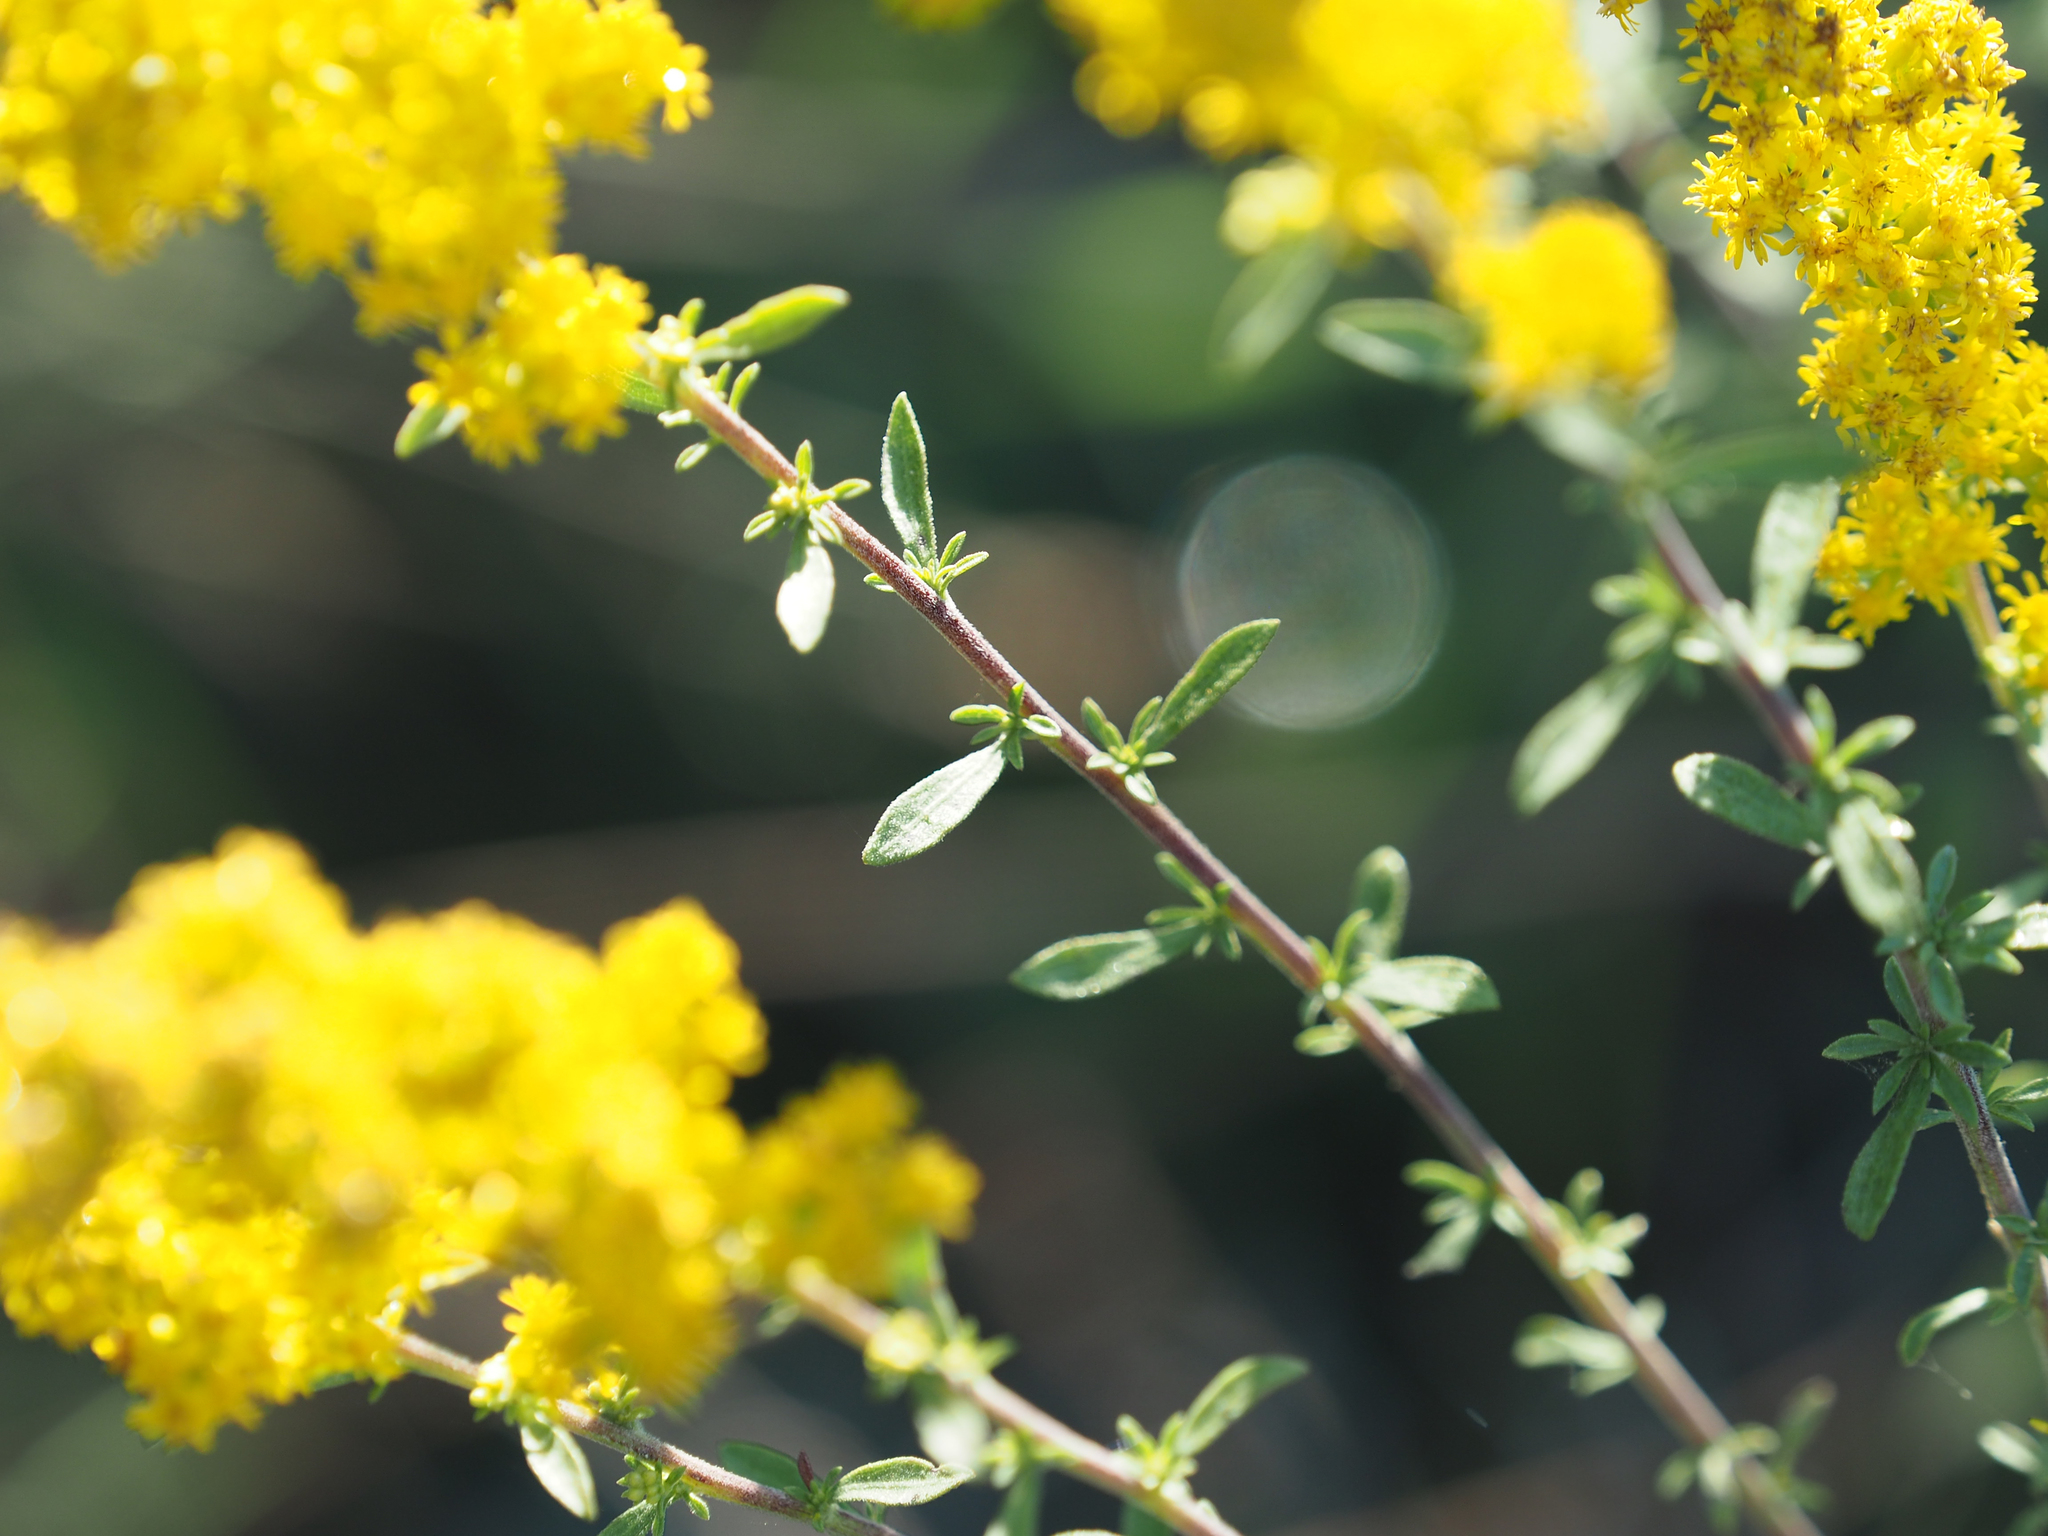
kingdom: Plantae
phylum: Tracheophyta
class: Magnoliopsida
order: Asterales
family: Asteraceae
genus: Solidago
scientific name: Solidago nemoralis
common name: Grey goldenrod
